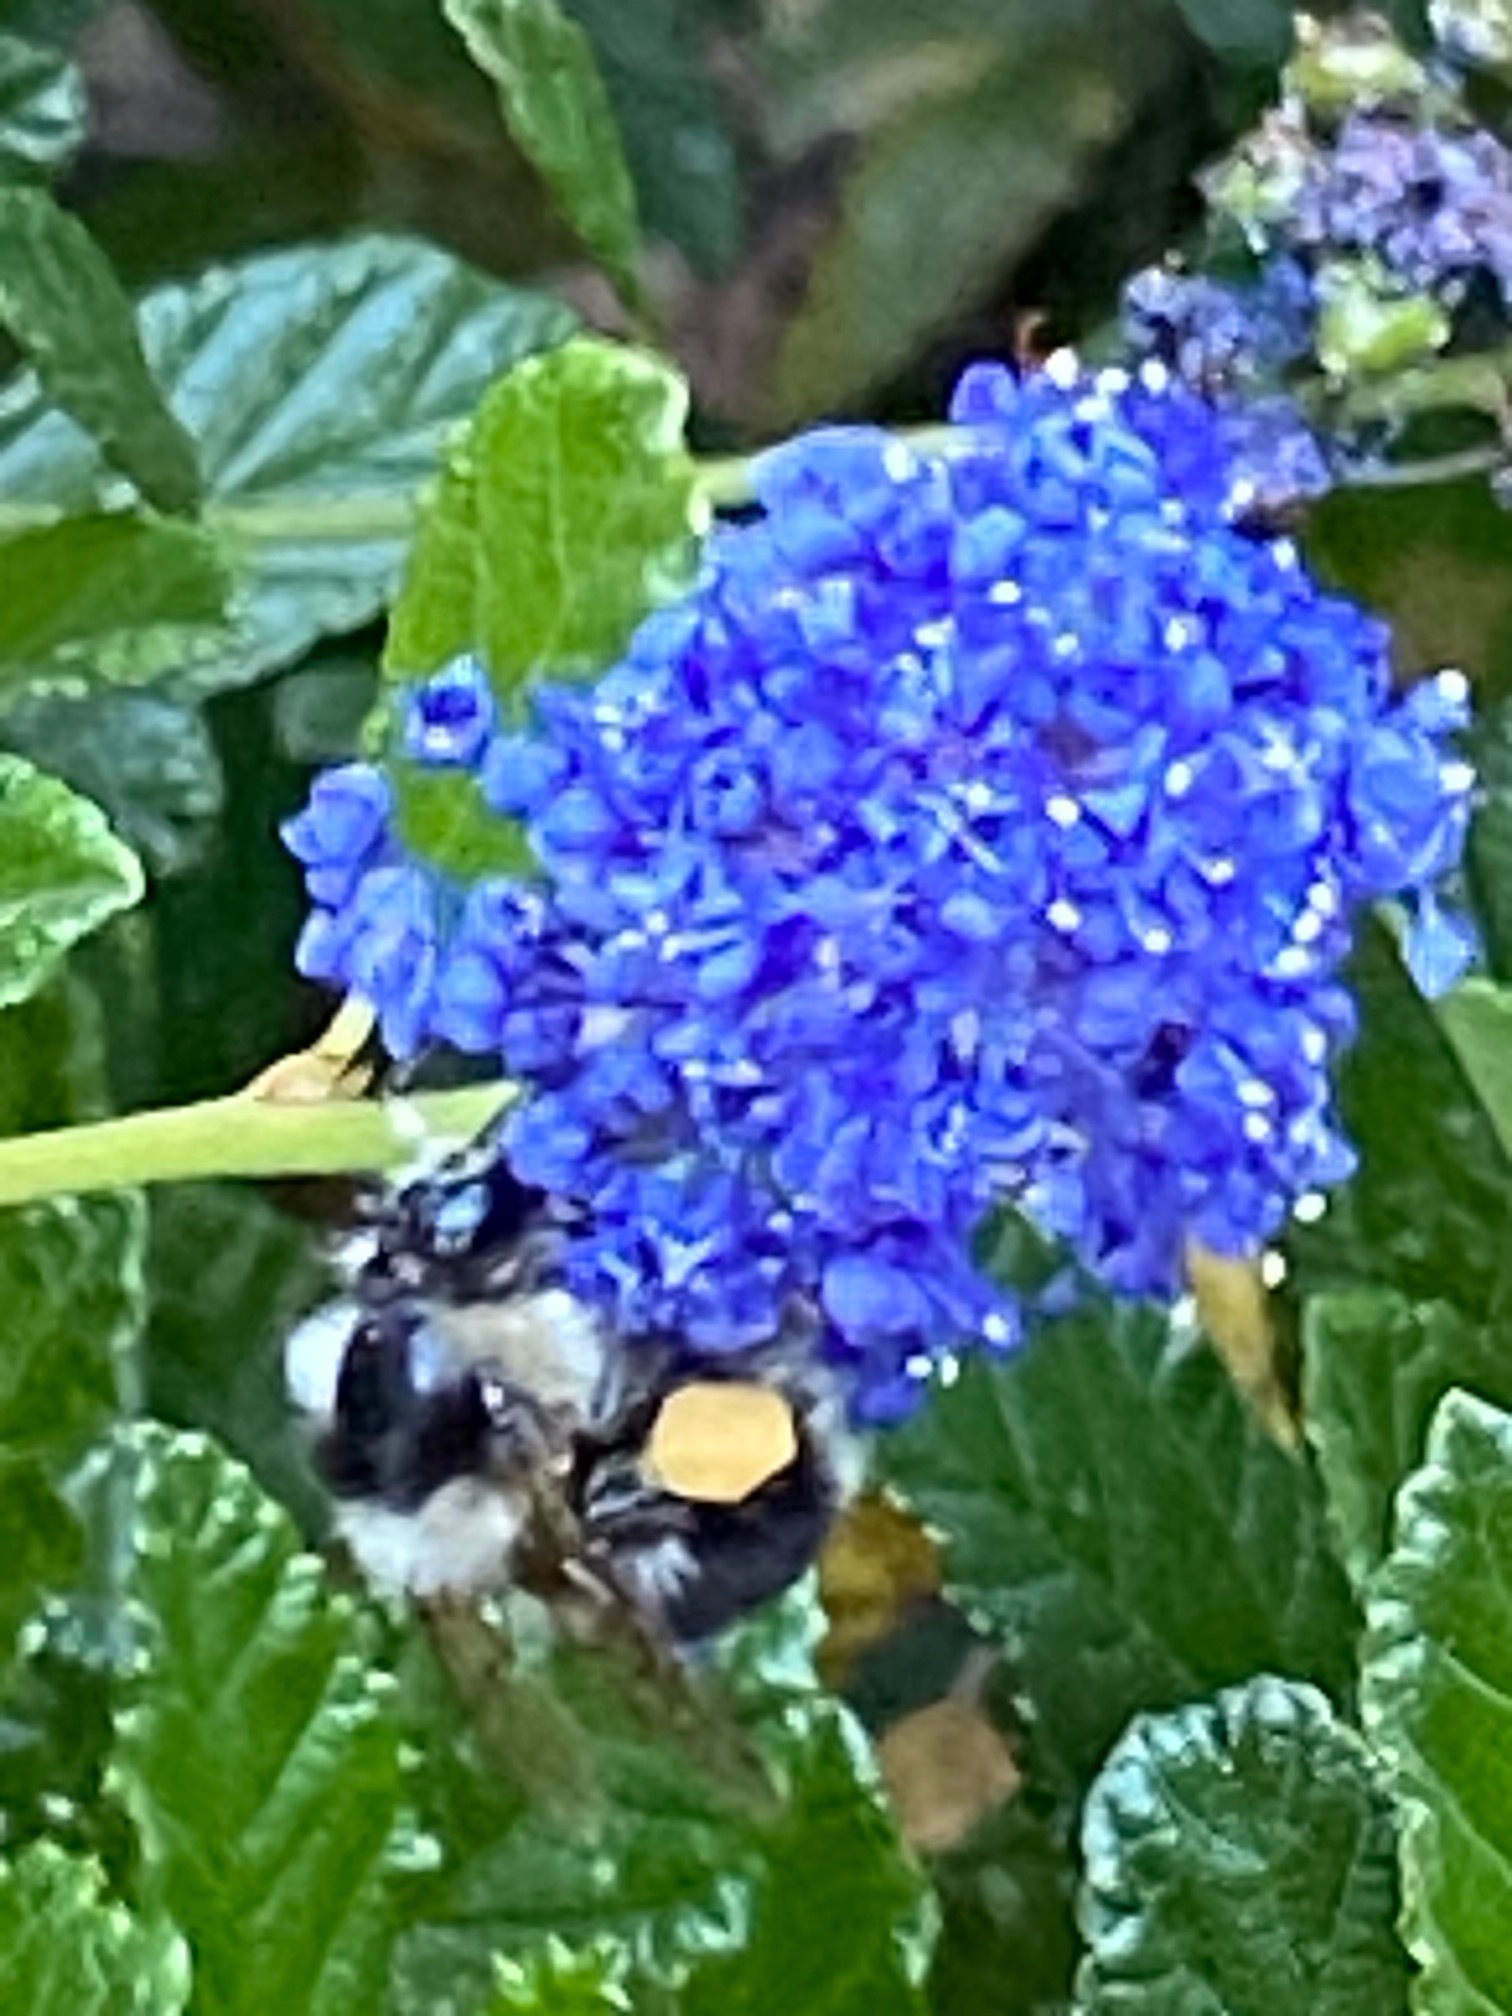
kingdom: Animalia
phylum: Arthropoda
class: Insecta
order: Hymenoptera
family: Apidae
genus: Bombus
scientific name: Bombus melanopygus
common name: Black tail bumble bee
